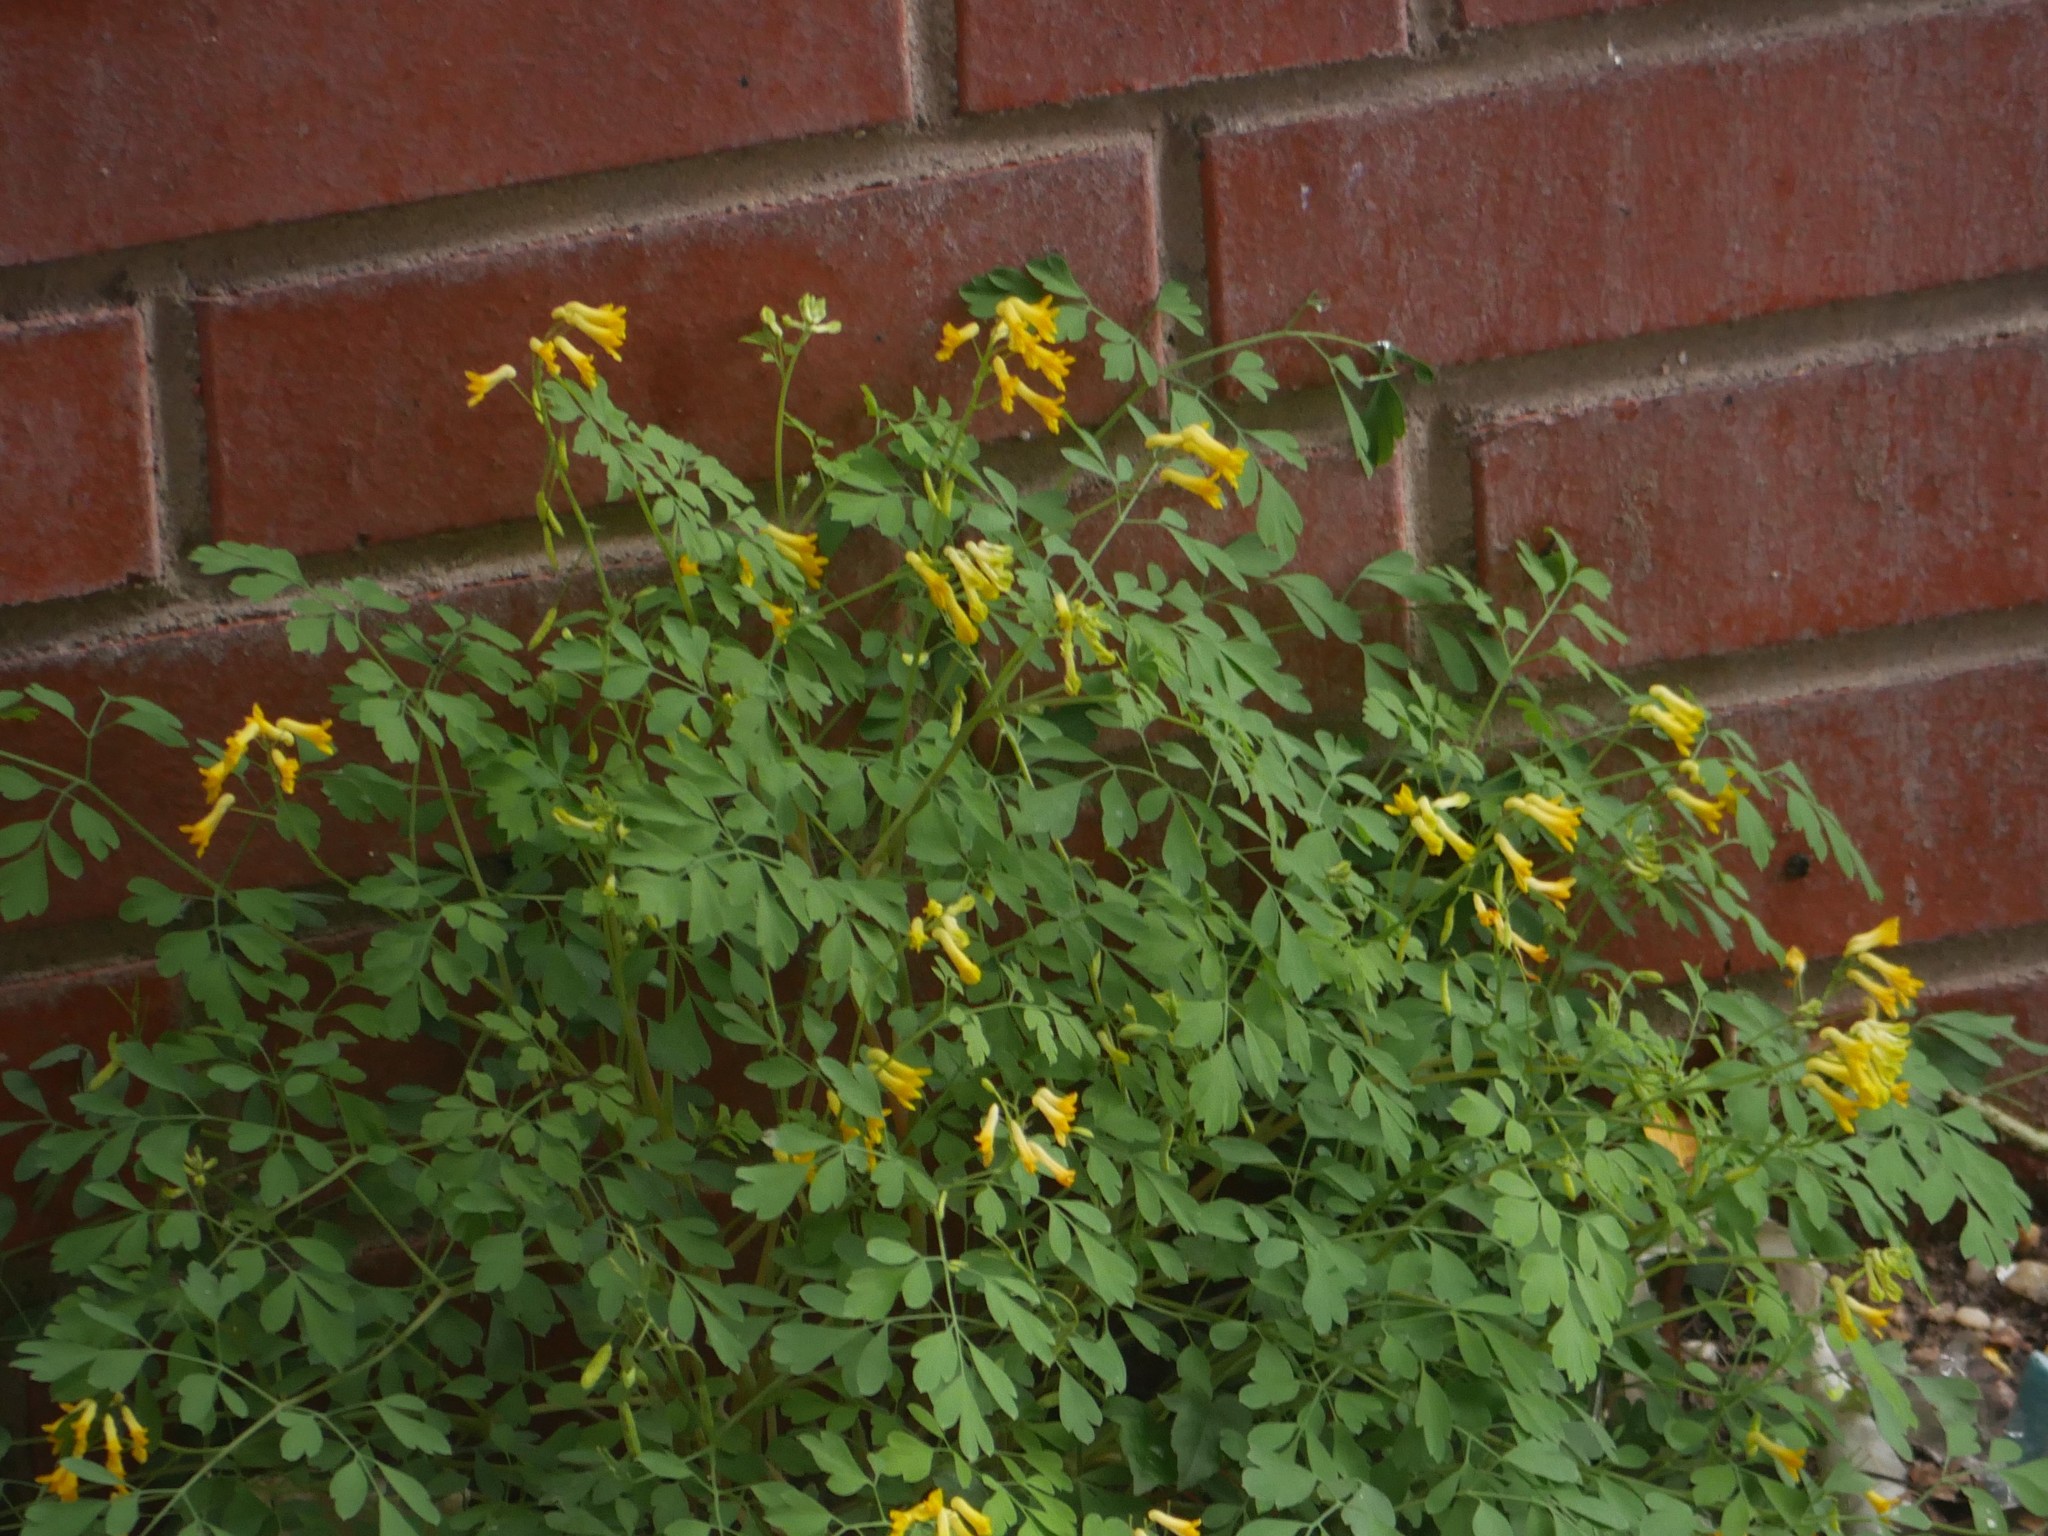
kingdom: Plantae
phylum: Tracheophyta
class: Magnoliopsida
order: Ranunculales
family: Papaveraceae
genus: Pseudofumaria
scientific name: Pseudofumaria lutea
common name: Yellow corydalis
